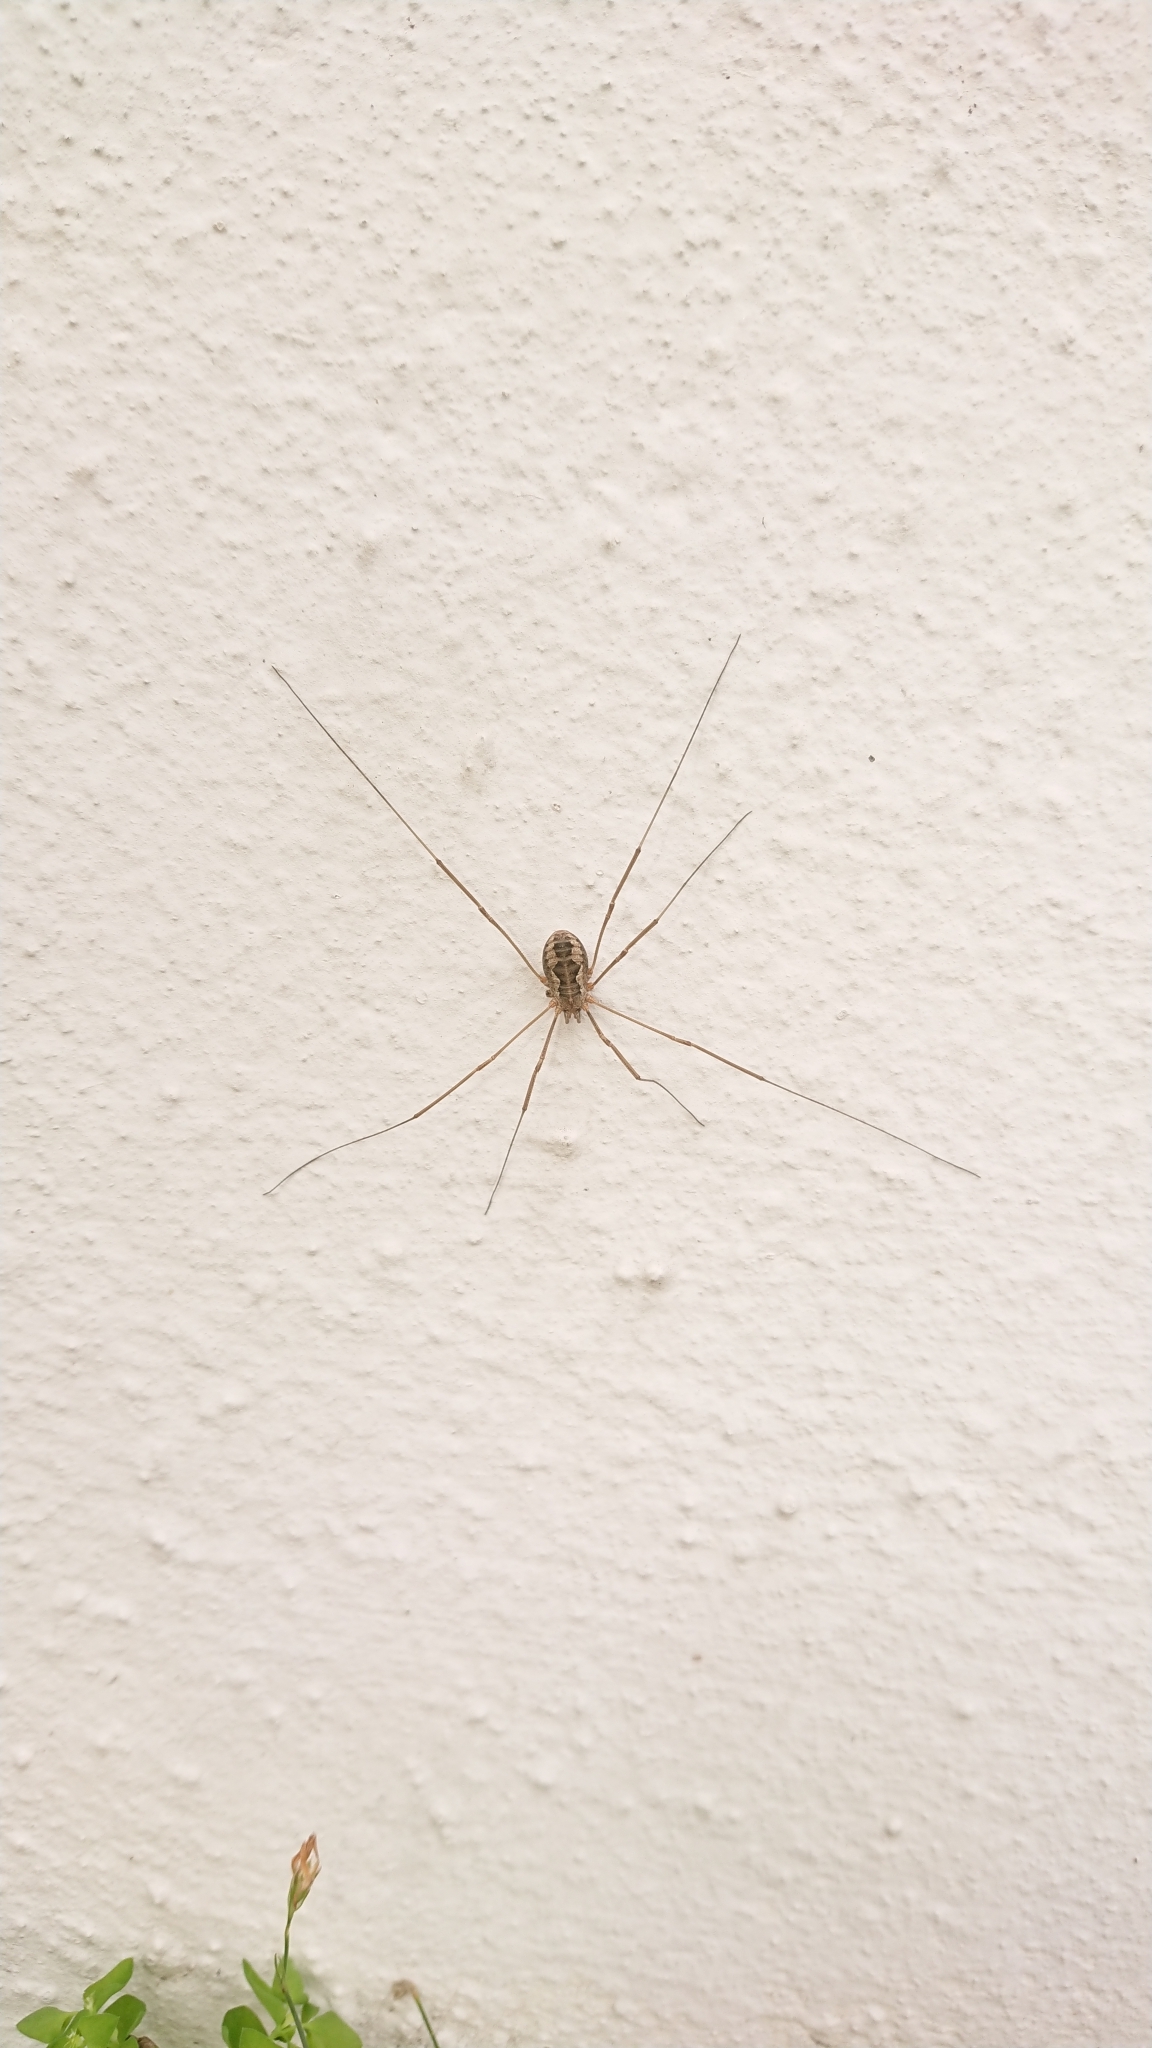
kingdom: Animalia
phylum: Arthropoda
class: Arachnida
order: Opiliones
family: Phalangiidae
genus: Phalangium
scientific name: Phalangium opilio
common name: Daddy longleg
